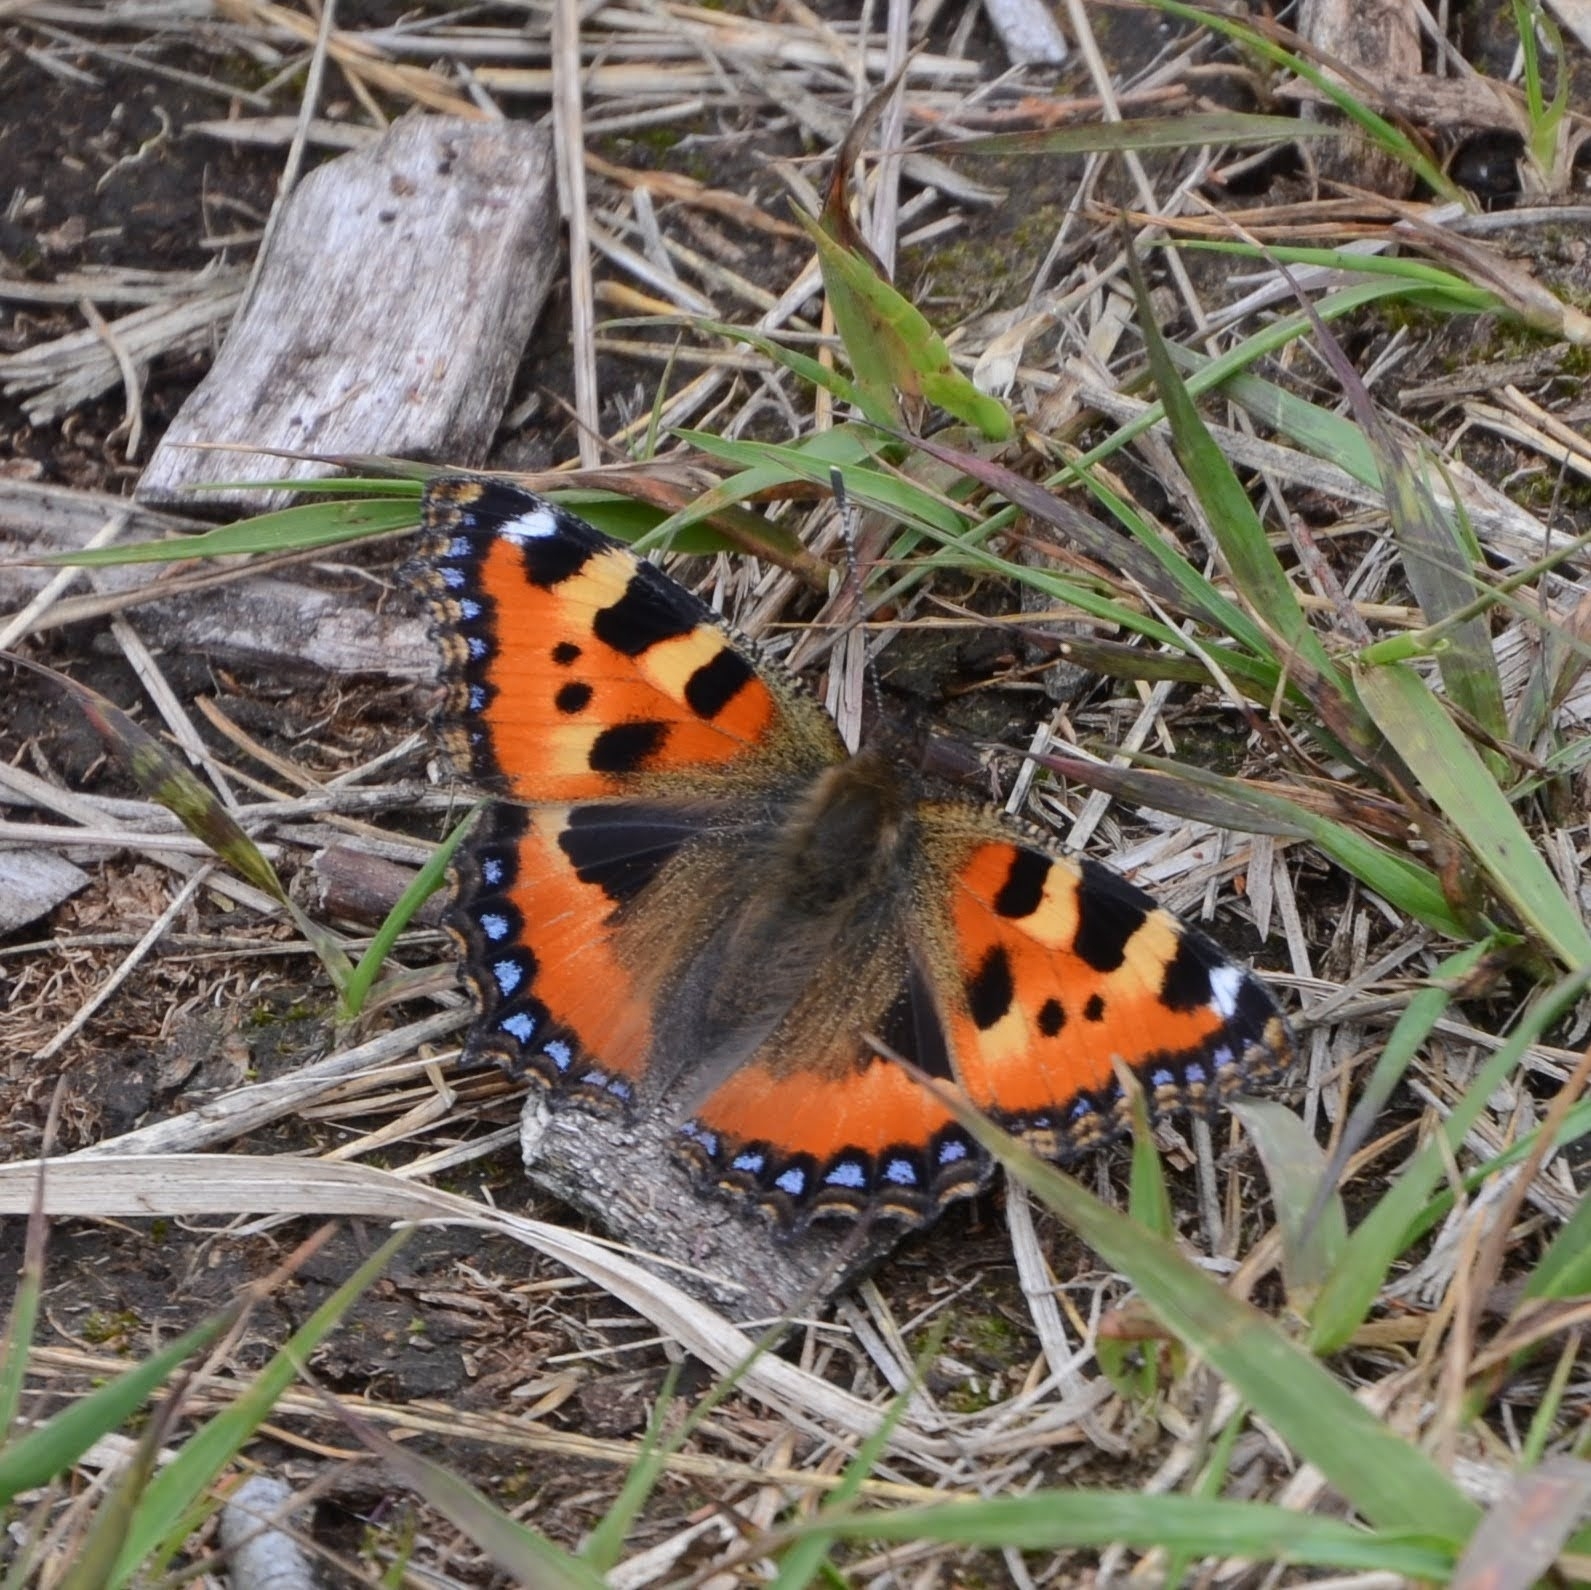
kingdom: Animalia
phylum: Arthropoda
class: Insecta
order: Lepidoptera
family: Nymphalidae
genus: Aglais
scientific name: Aglais urticae
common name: Small tortoiseshell
